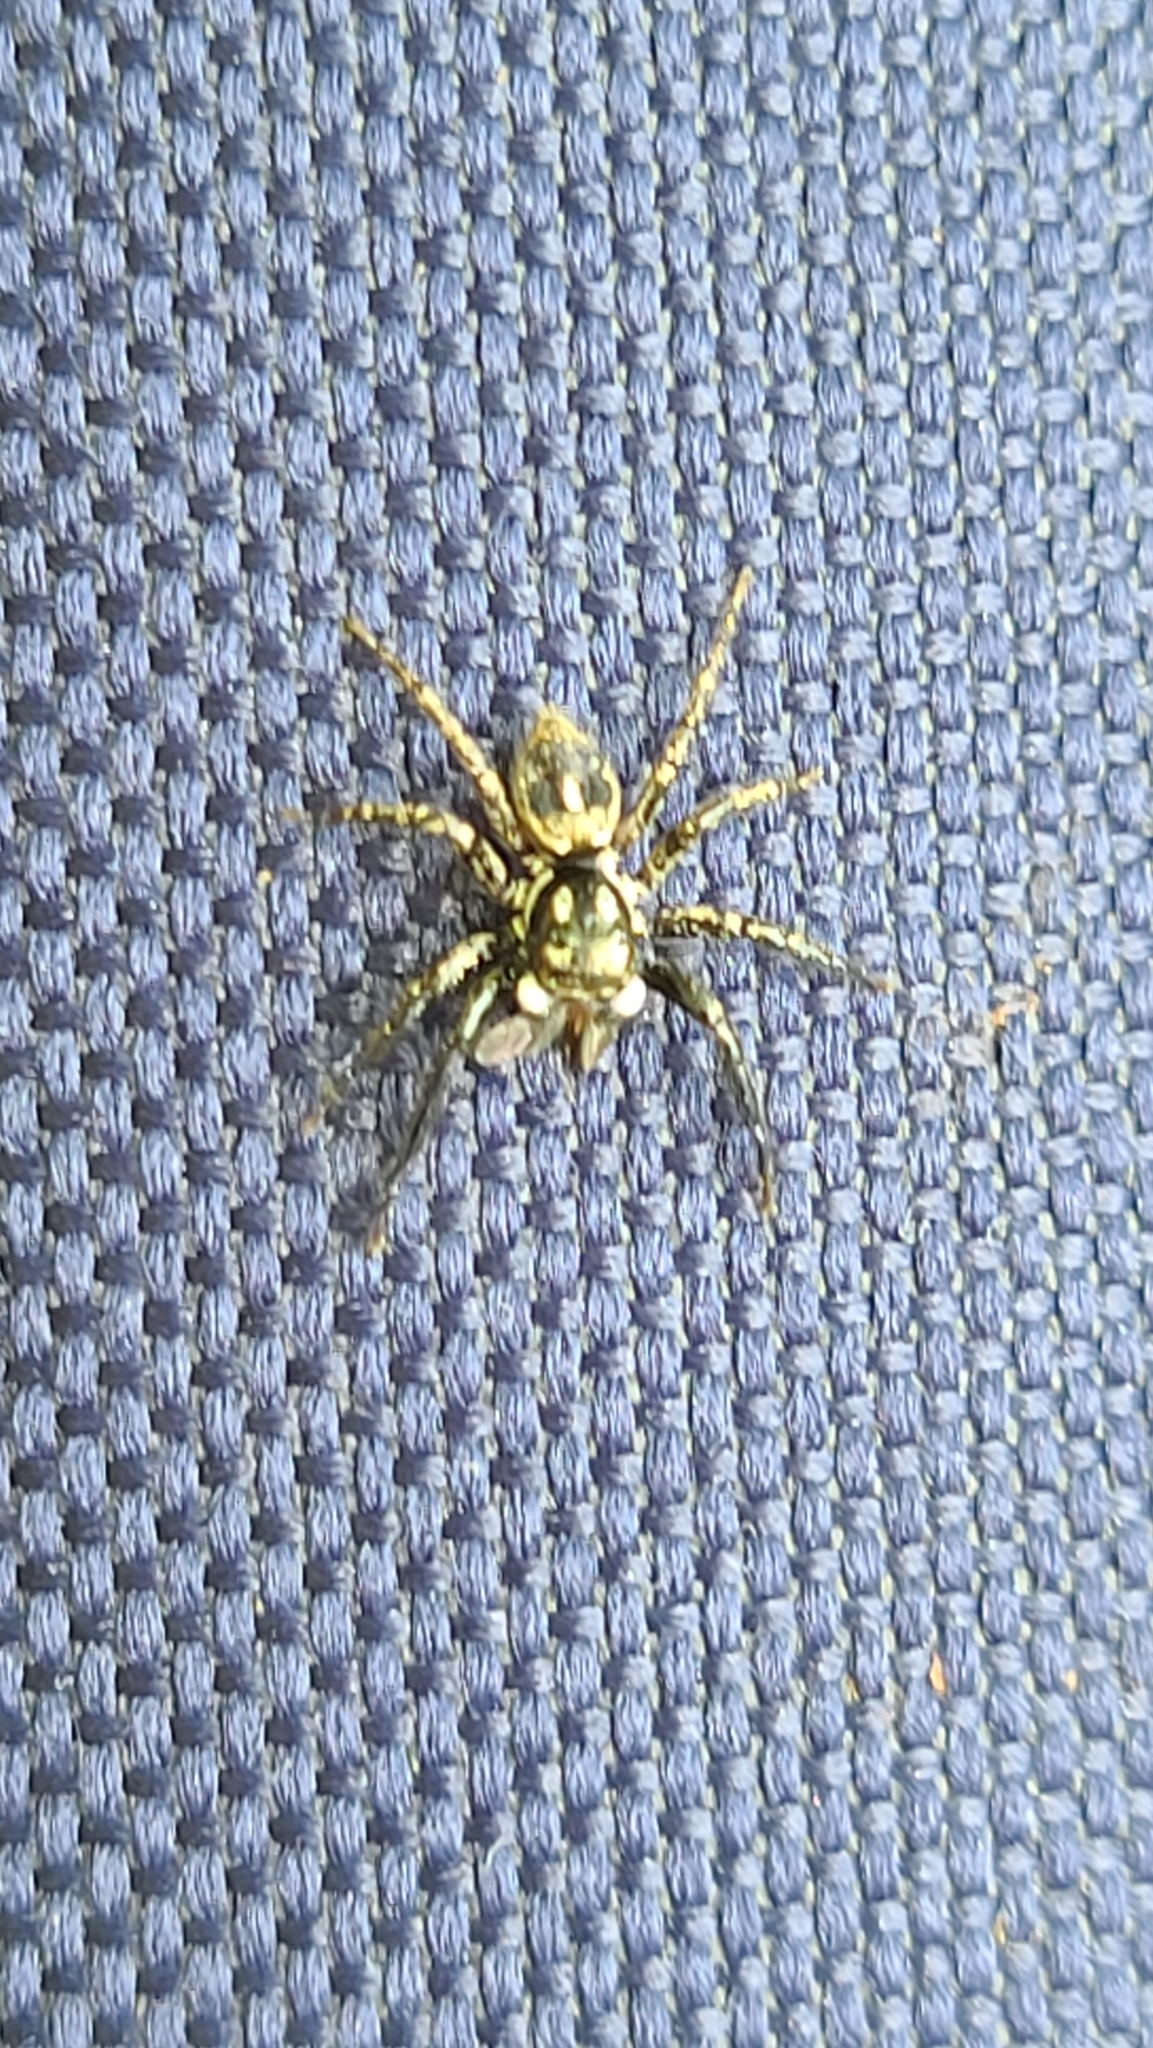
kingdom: Animalia
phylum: Arthropoda
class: Arachnida
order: Araneae
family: Salticidae
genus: Anasaitis
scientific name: Anasaitis canosa
